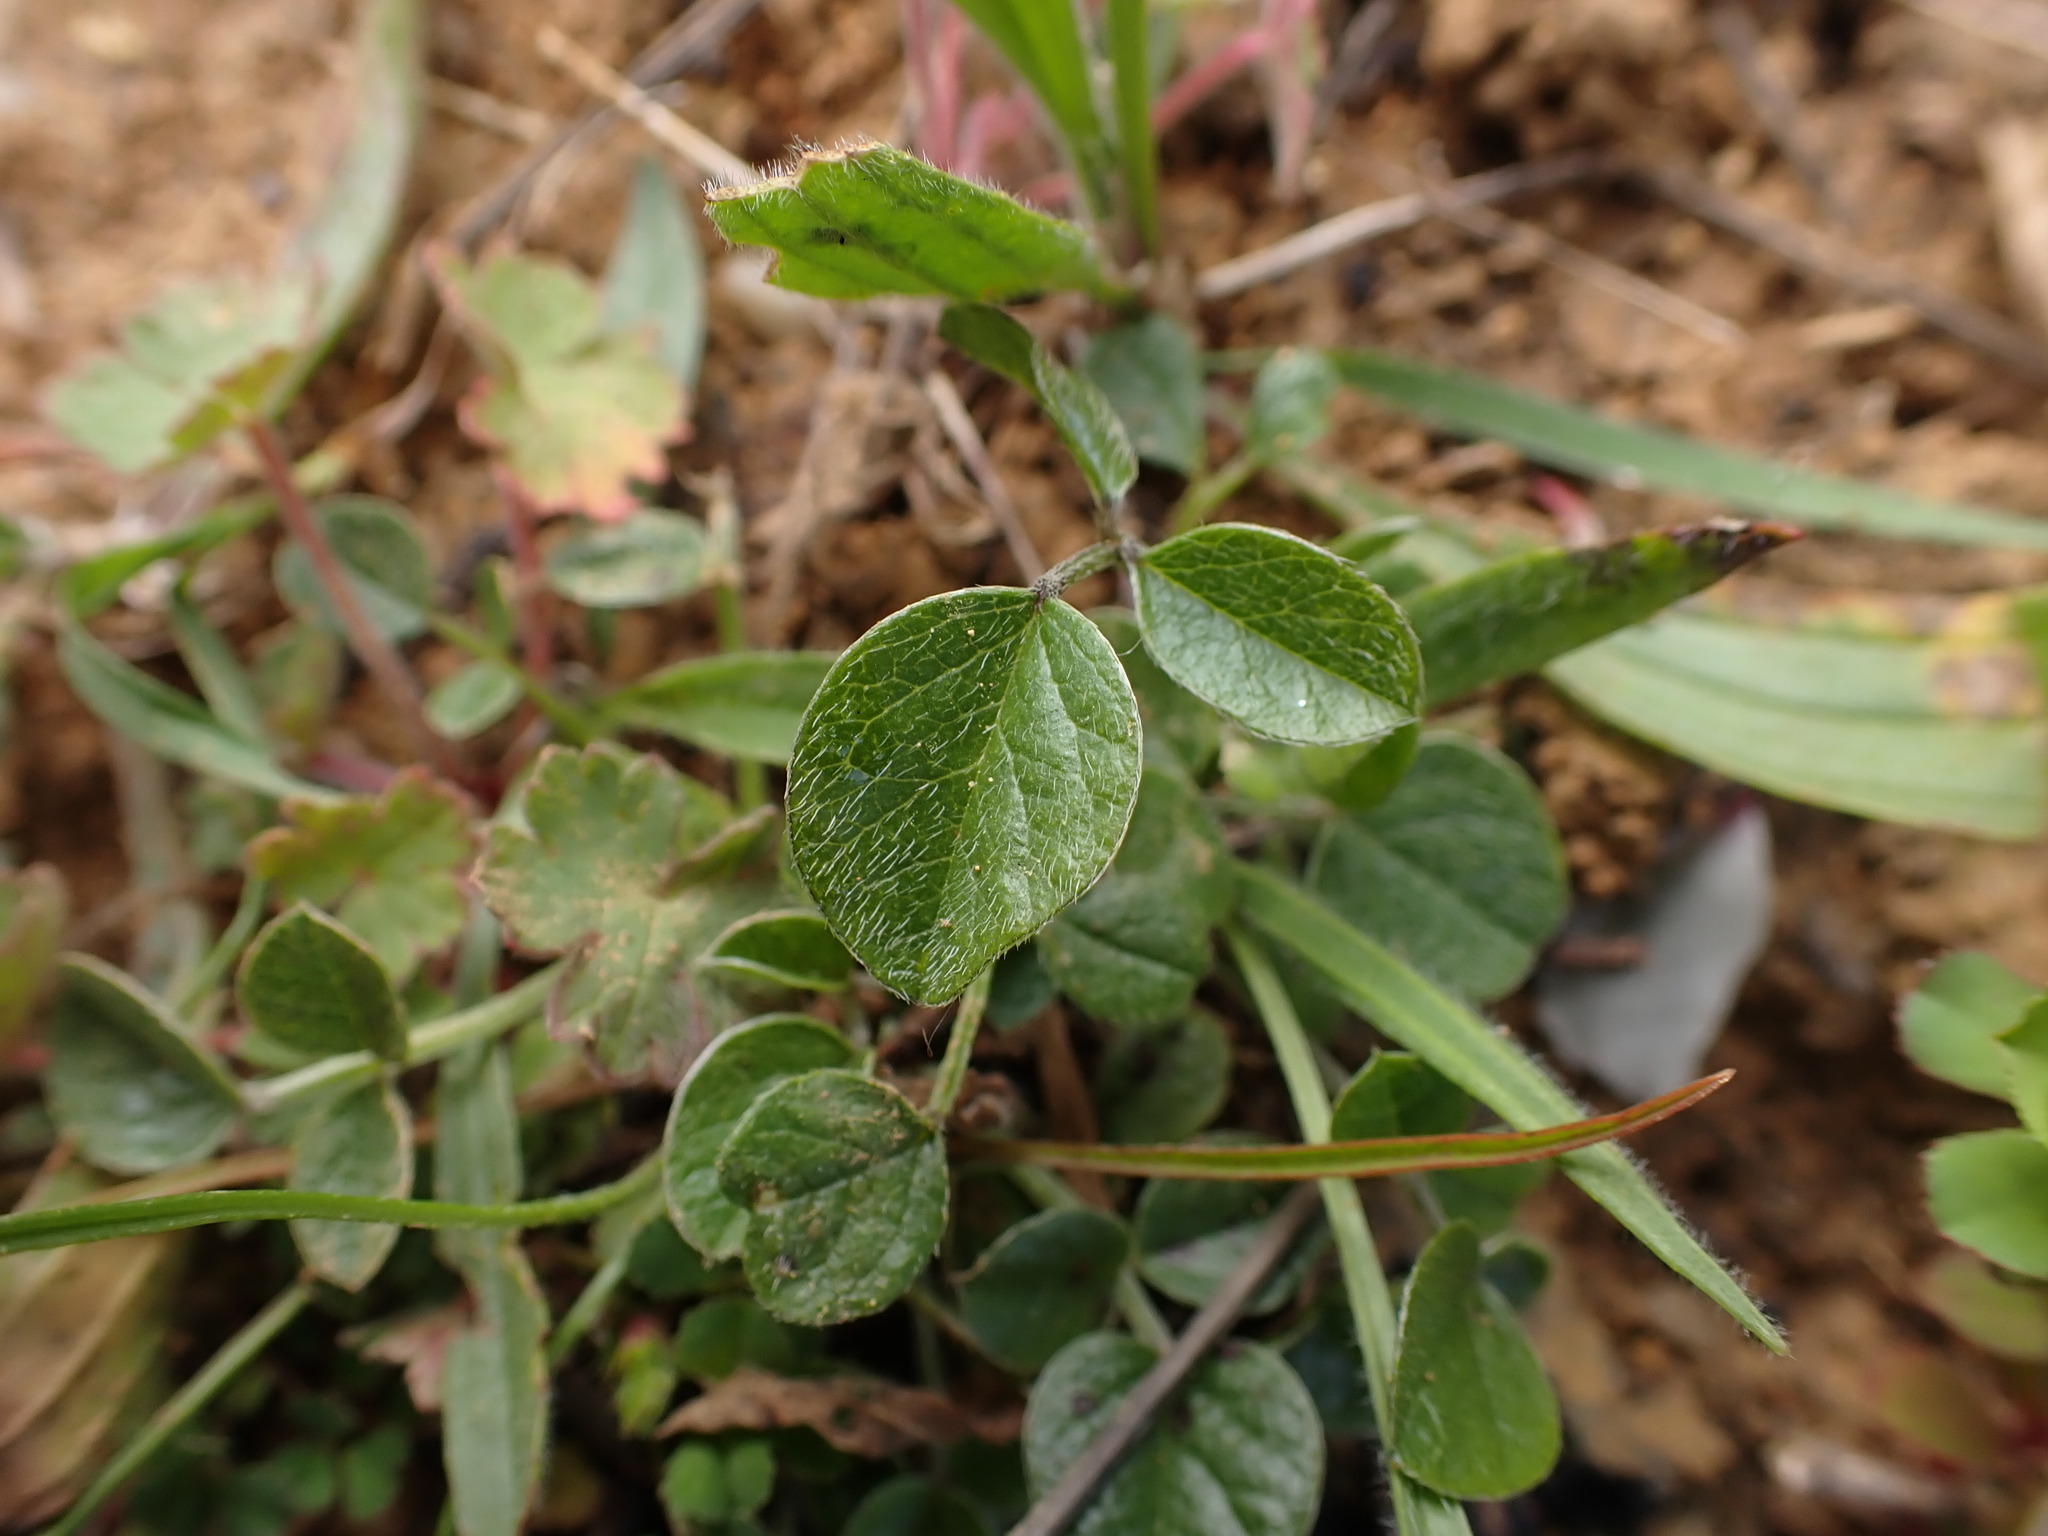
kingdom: Plantae
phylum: Tracheophyta
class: Magnoliopsida
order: Fabales
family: Fabaceae
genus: Bituminaria
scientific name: Bituminaria bituminosa
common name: Arabian pea
